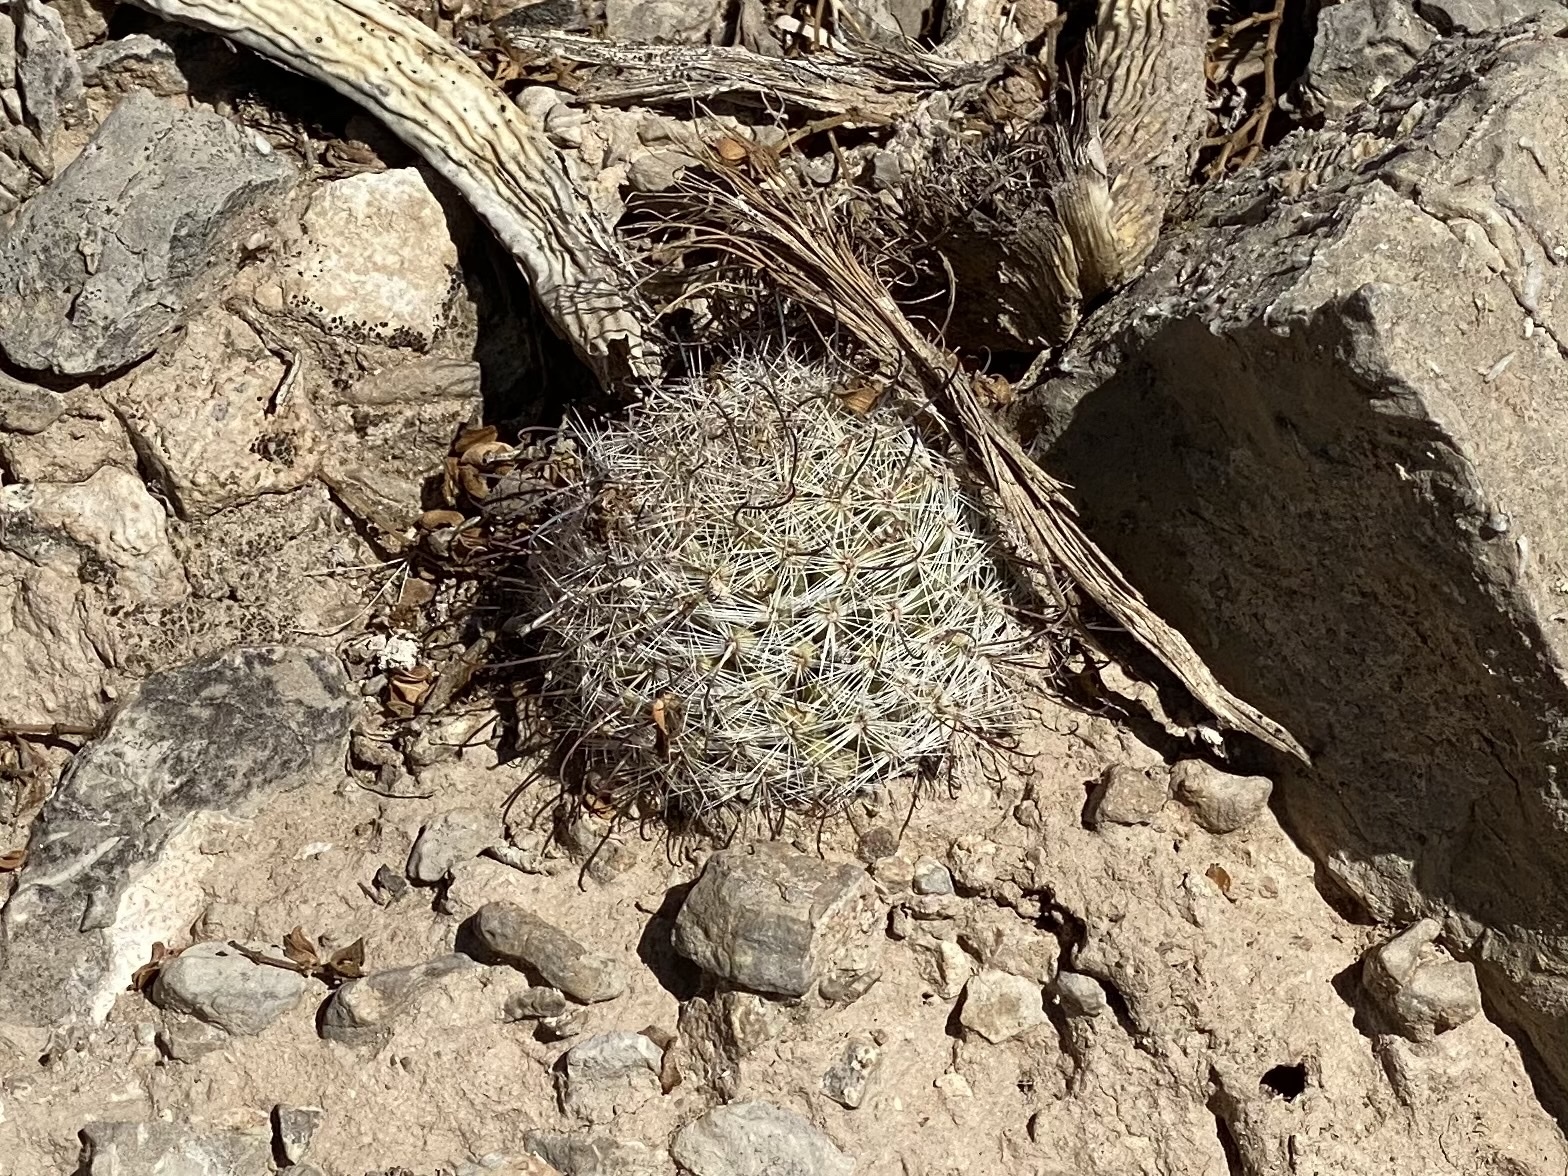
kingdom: Plantae
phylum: Tracheophyta
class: Magnoliopsida
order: Caryophyllales
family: Cactaceae
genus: Cochemiea
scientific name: Cochemiea grahamii
